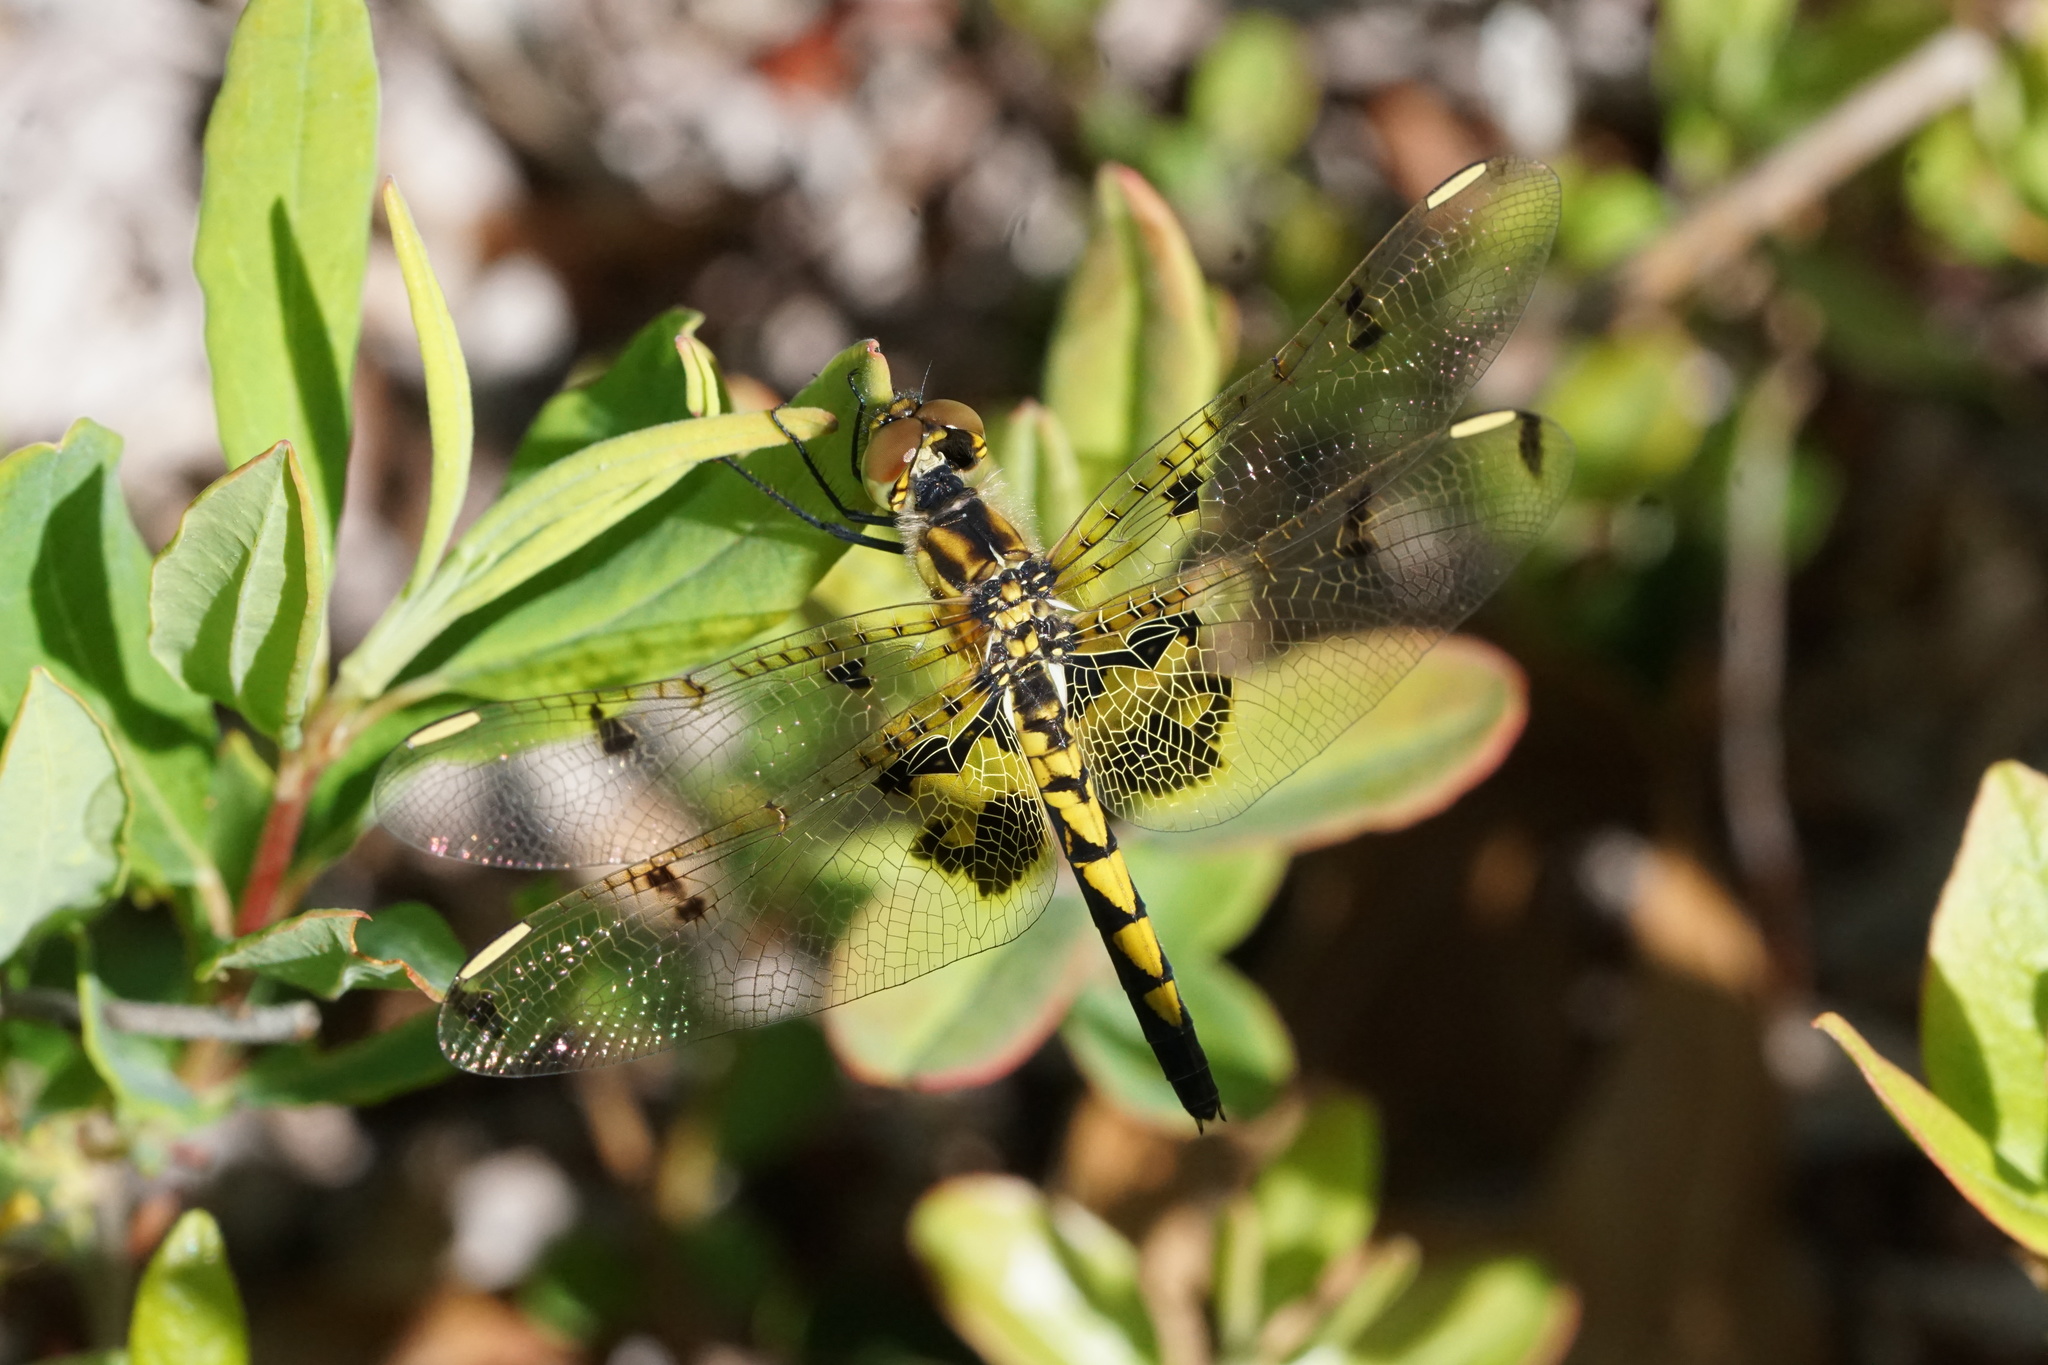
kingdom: Animalia
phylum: Arthropoda
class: Insecta
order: Odonata
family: Libellulidae
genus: Celithemis
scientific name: Celithemis elisa
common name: Calico pennant
